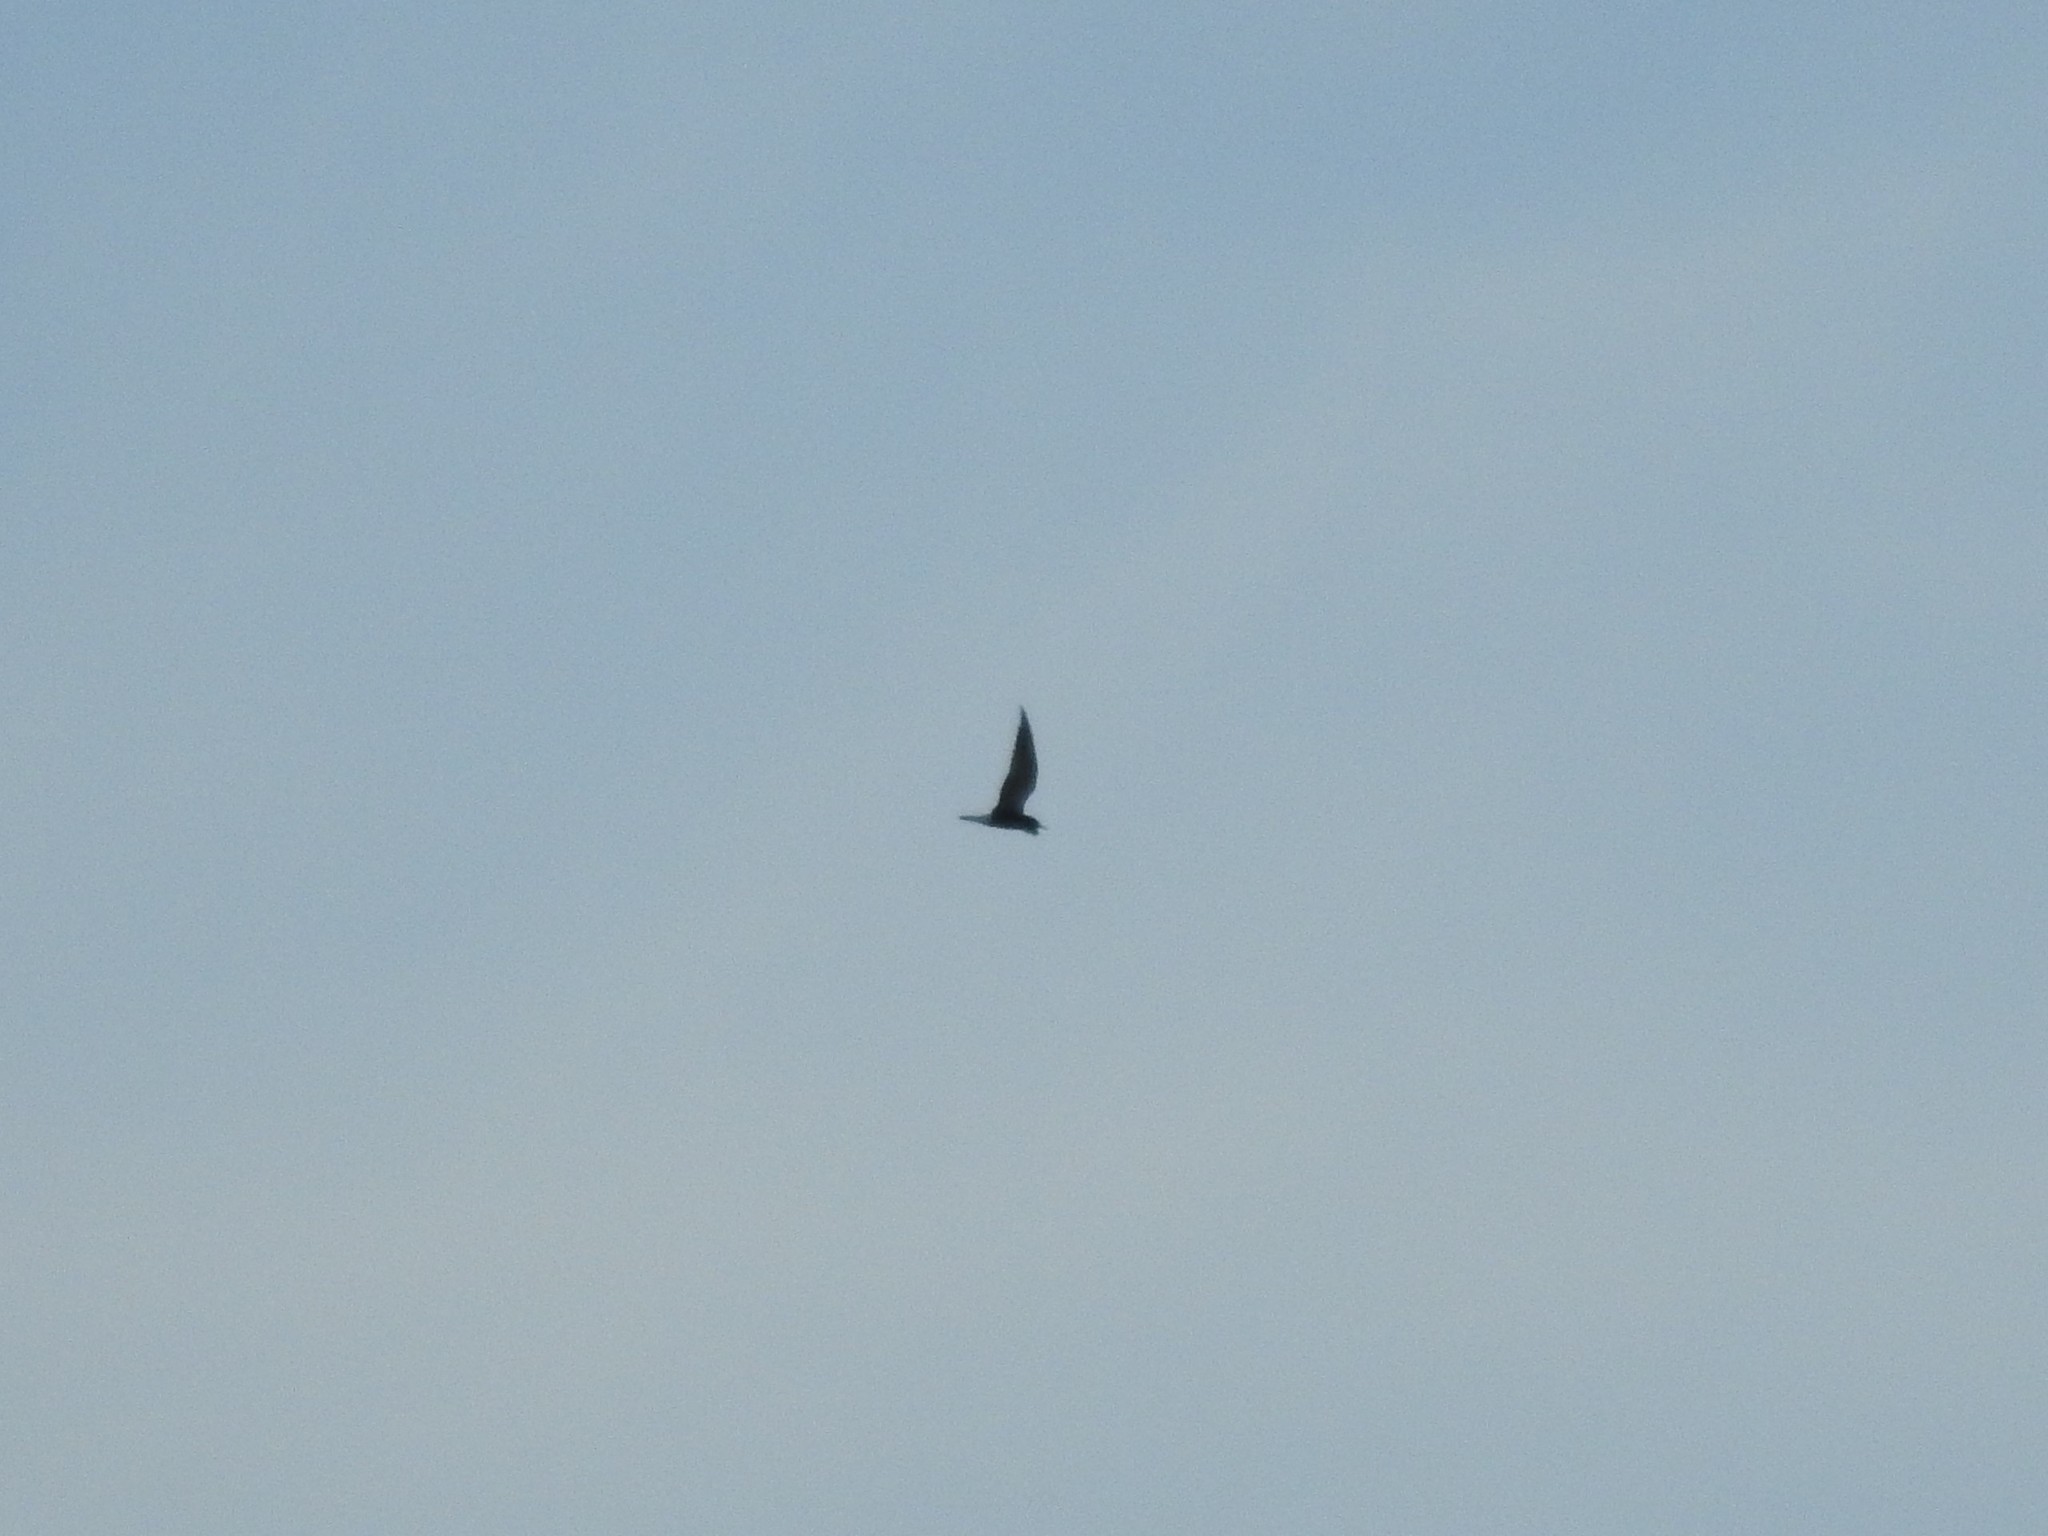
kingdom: Animalia
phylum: Chordata
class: Aves
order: Charadriiformes
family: Laridae
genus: Chlidonias
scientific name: Chlidonias niger
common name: Black tern
